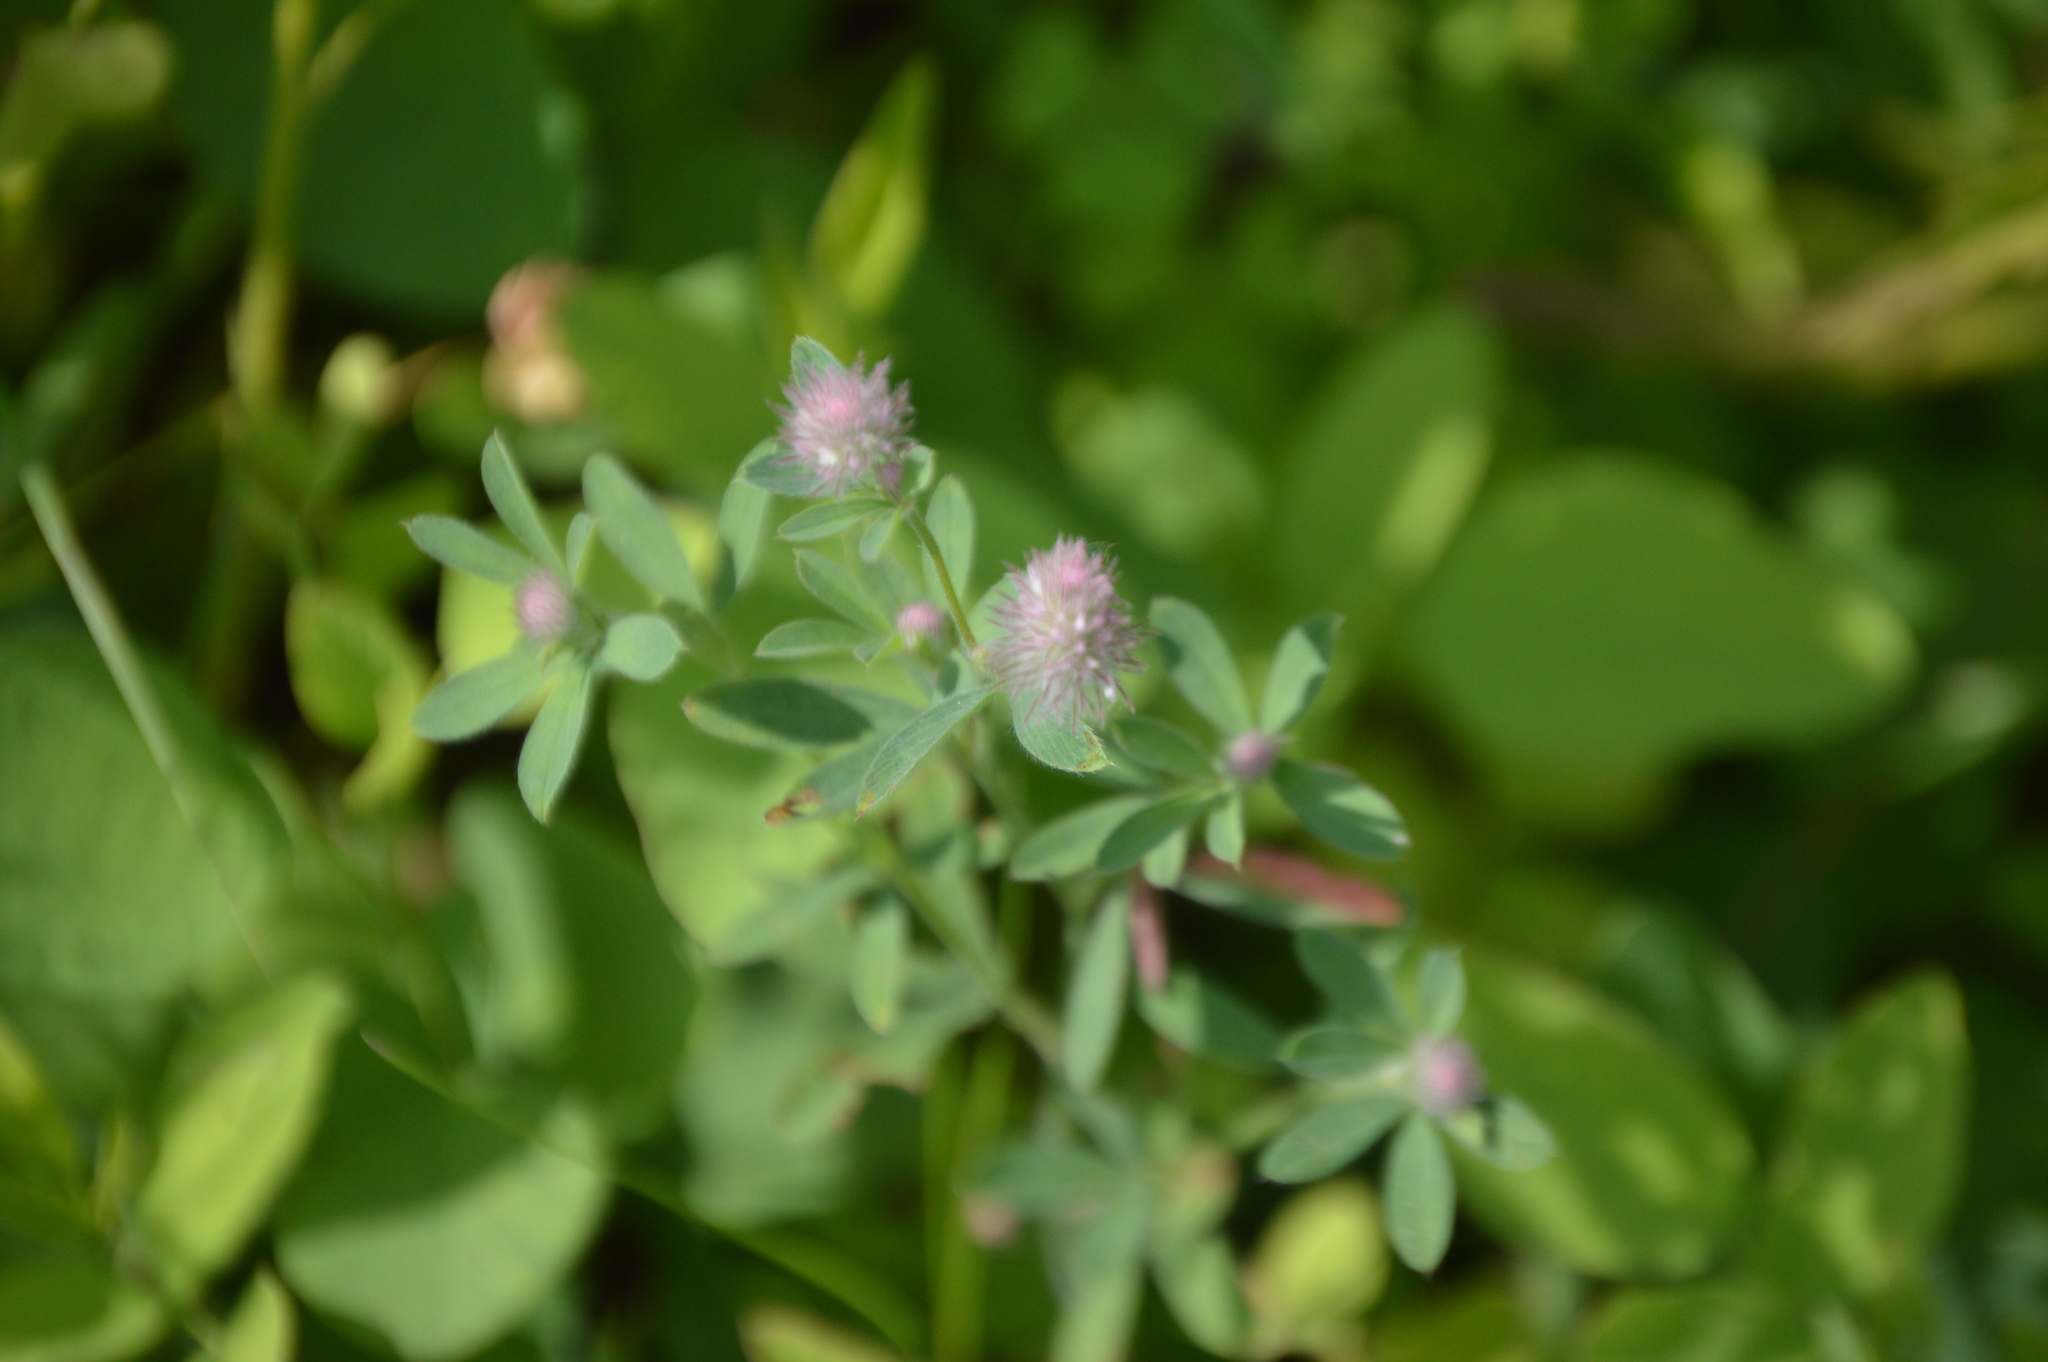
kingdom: Plantae
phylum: Tracheophyta
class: Magnoliopsida
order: Fabales
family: Fabaceae
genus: Trifolium
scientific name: Trifolium arvense
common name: Hare's-foot clover
